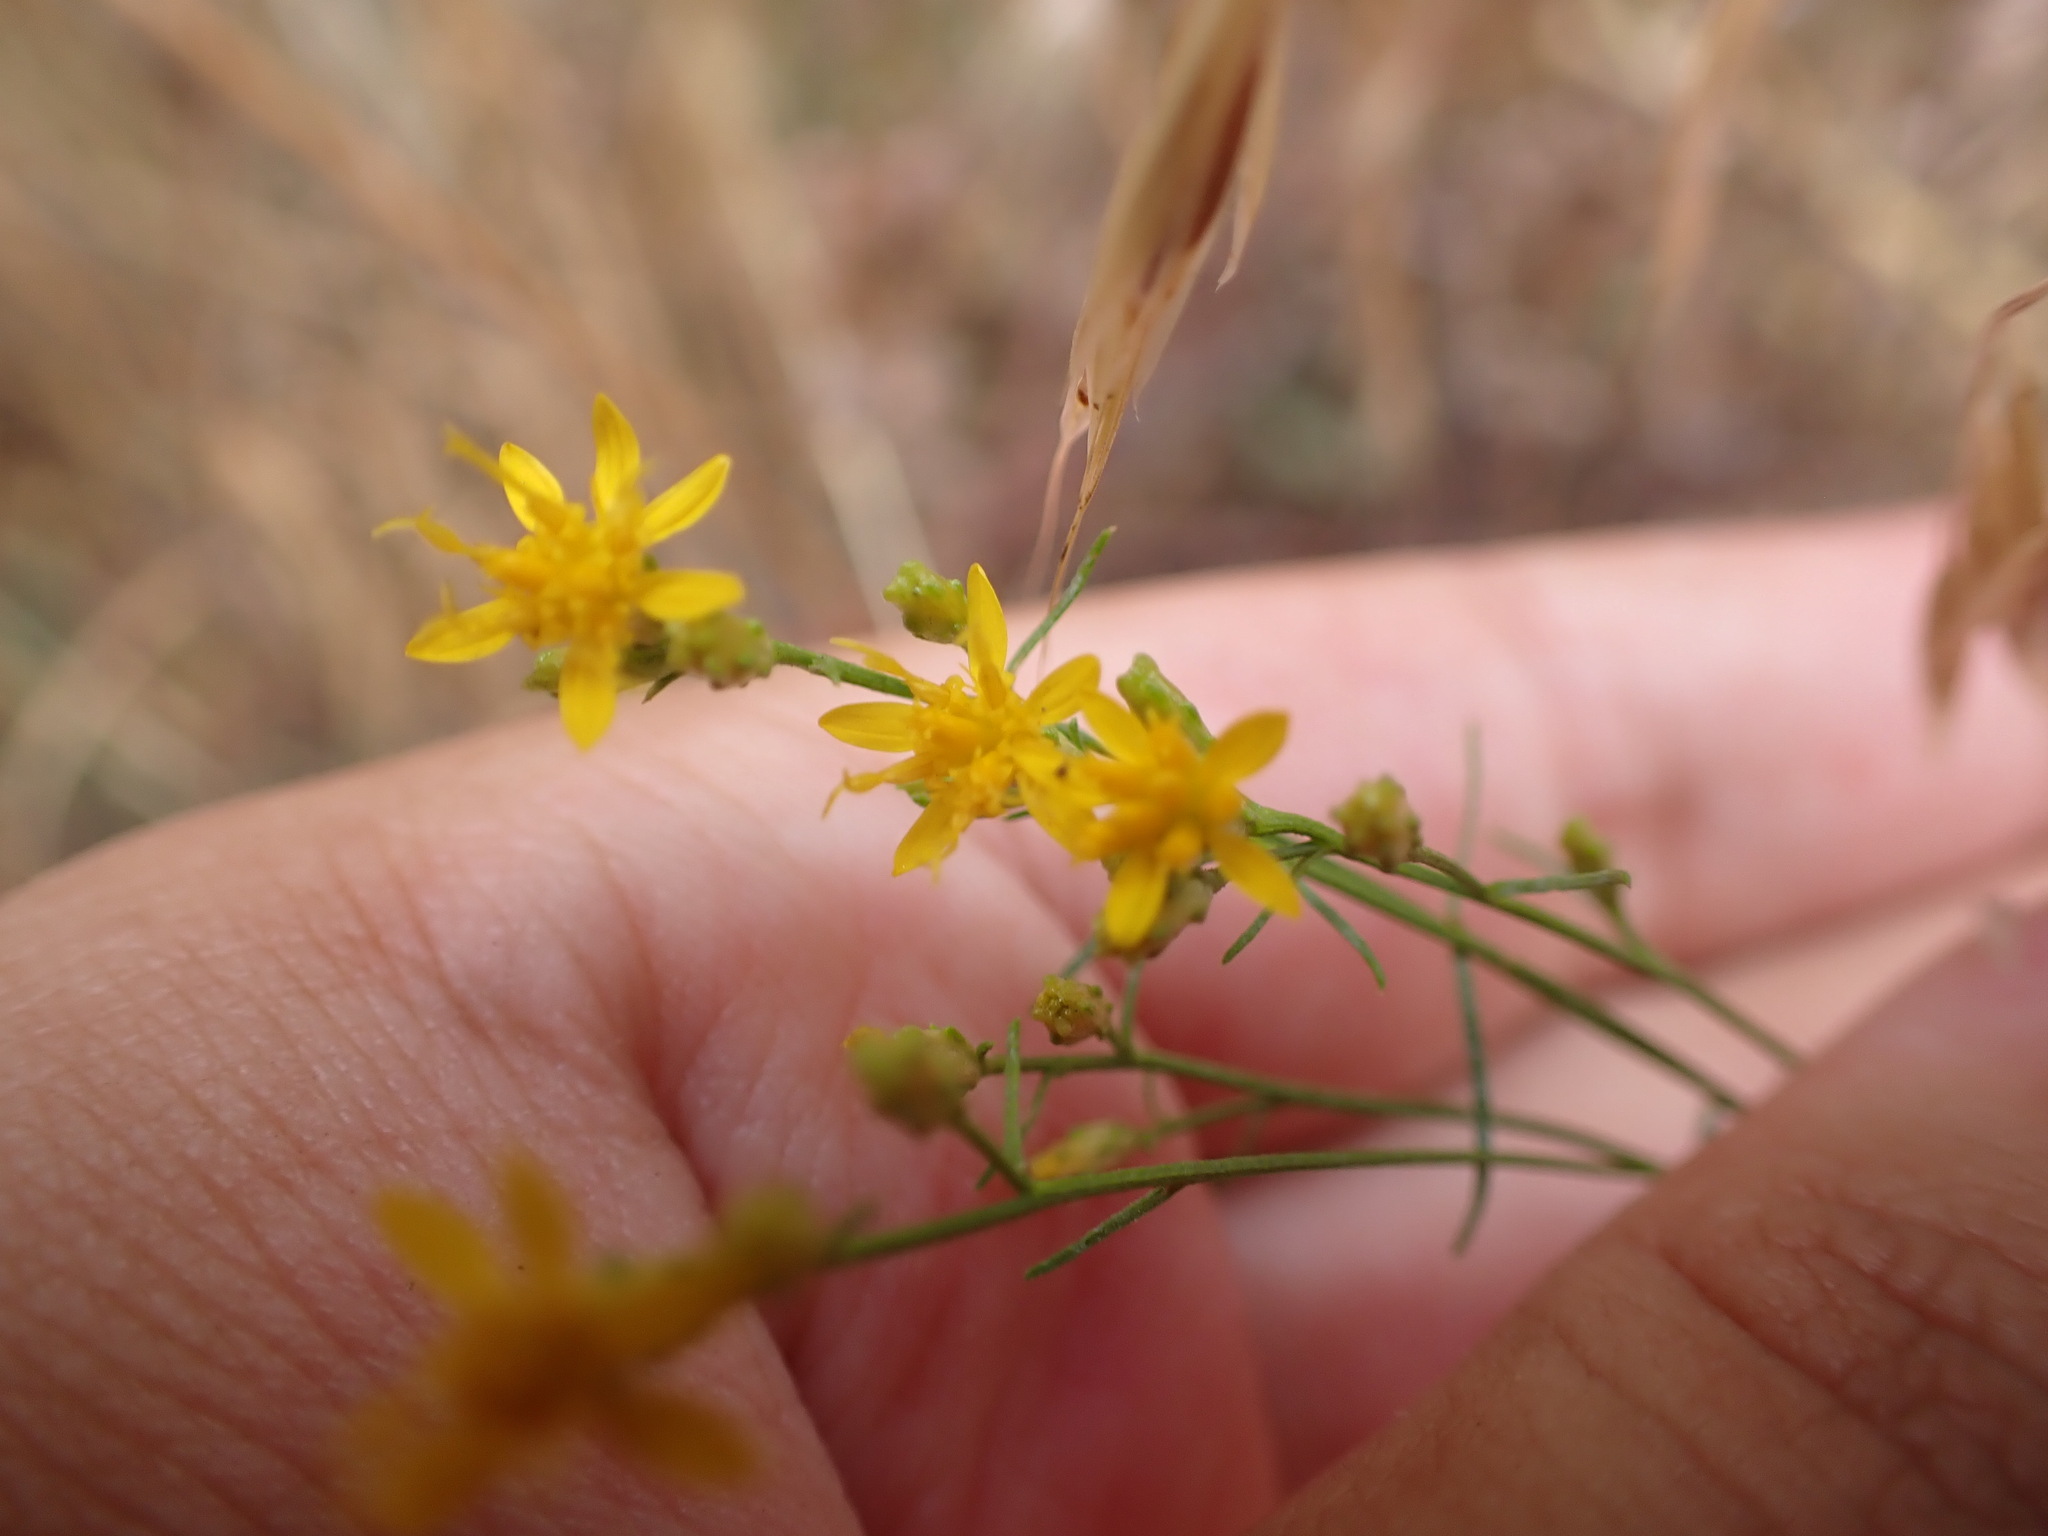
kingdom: Plantae
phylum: Tracheophyta
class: Magnoliopsida
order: Asterales
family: Asteraceae
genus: Gutierrezia
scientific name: Gutierrezia californica
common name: California matchweed
